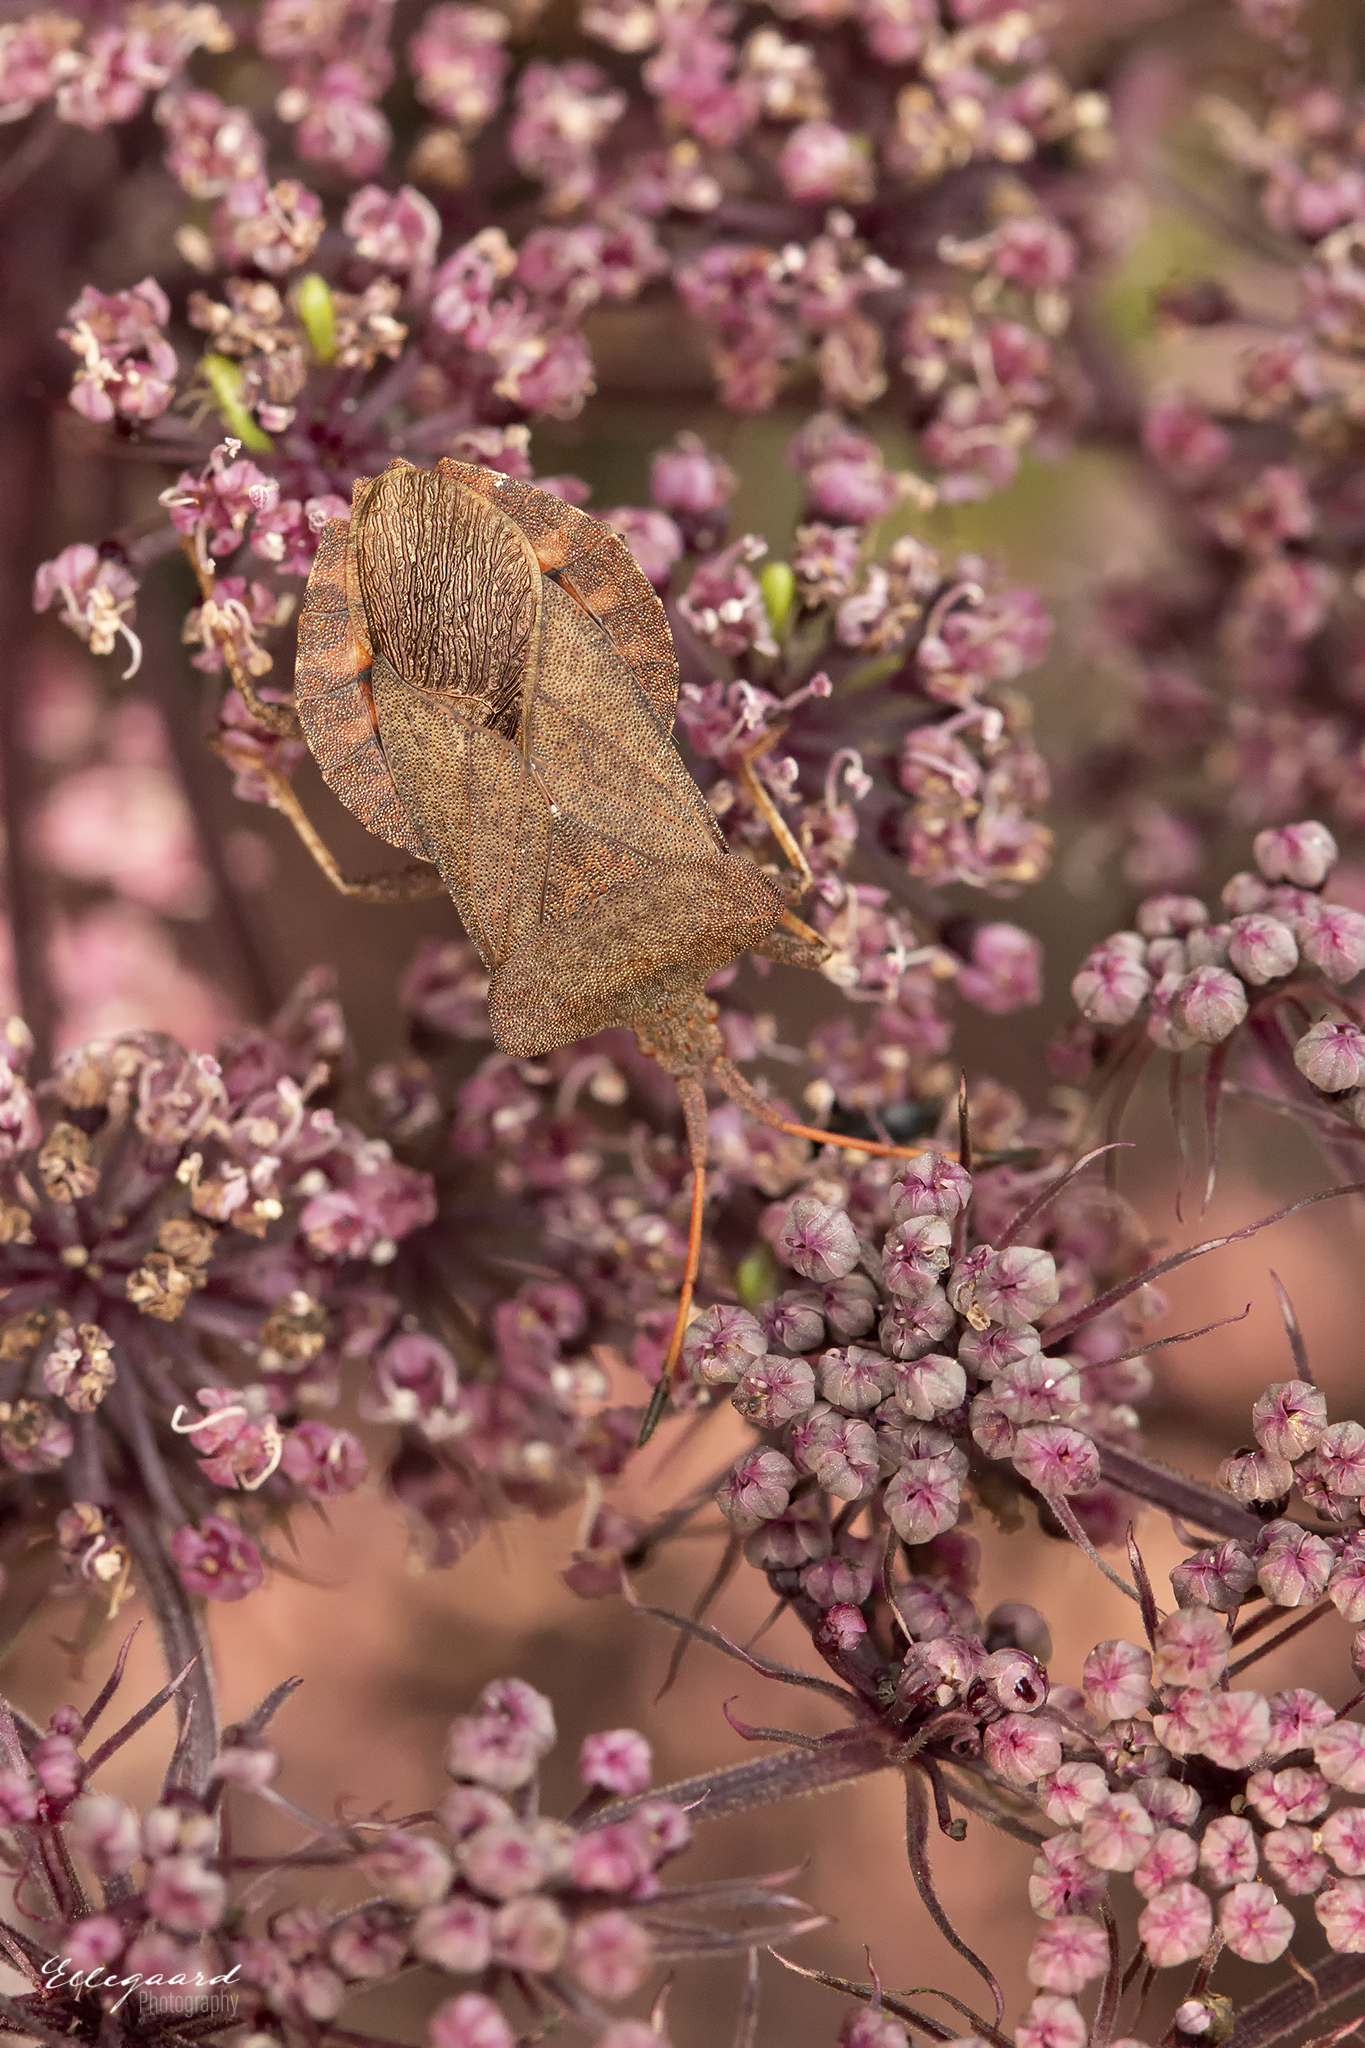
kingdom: Animalia
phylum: Arthropoda
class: Insecta
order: Hemiptera
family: Coreidae
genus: Coreus
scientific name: Coreus marginatus
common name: Dock bug
